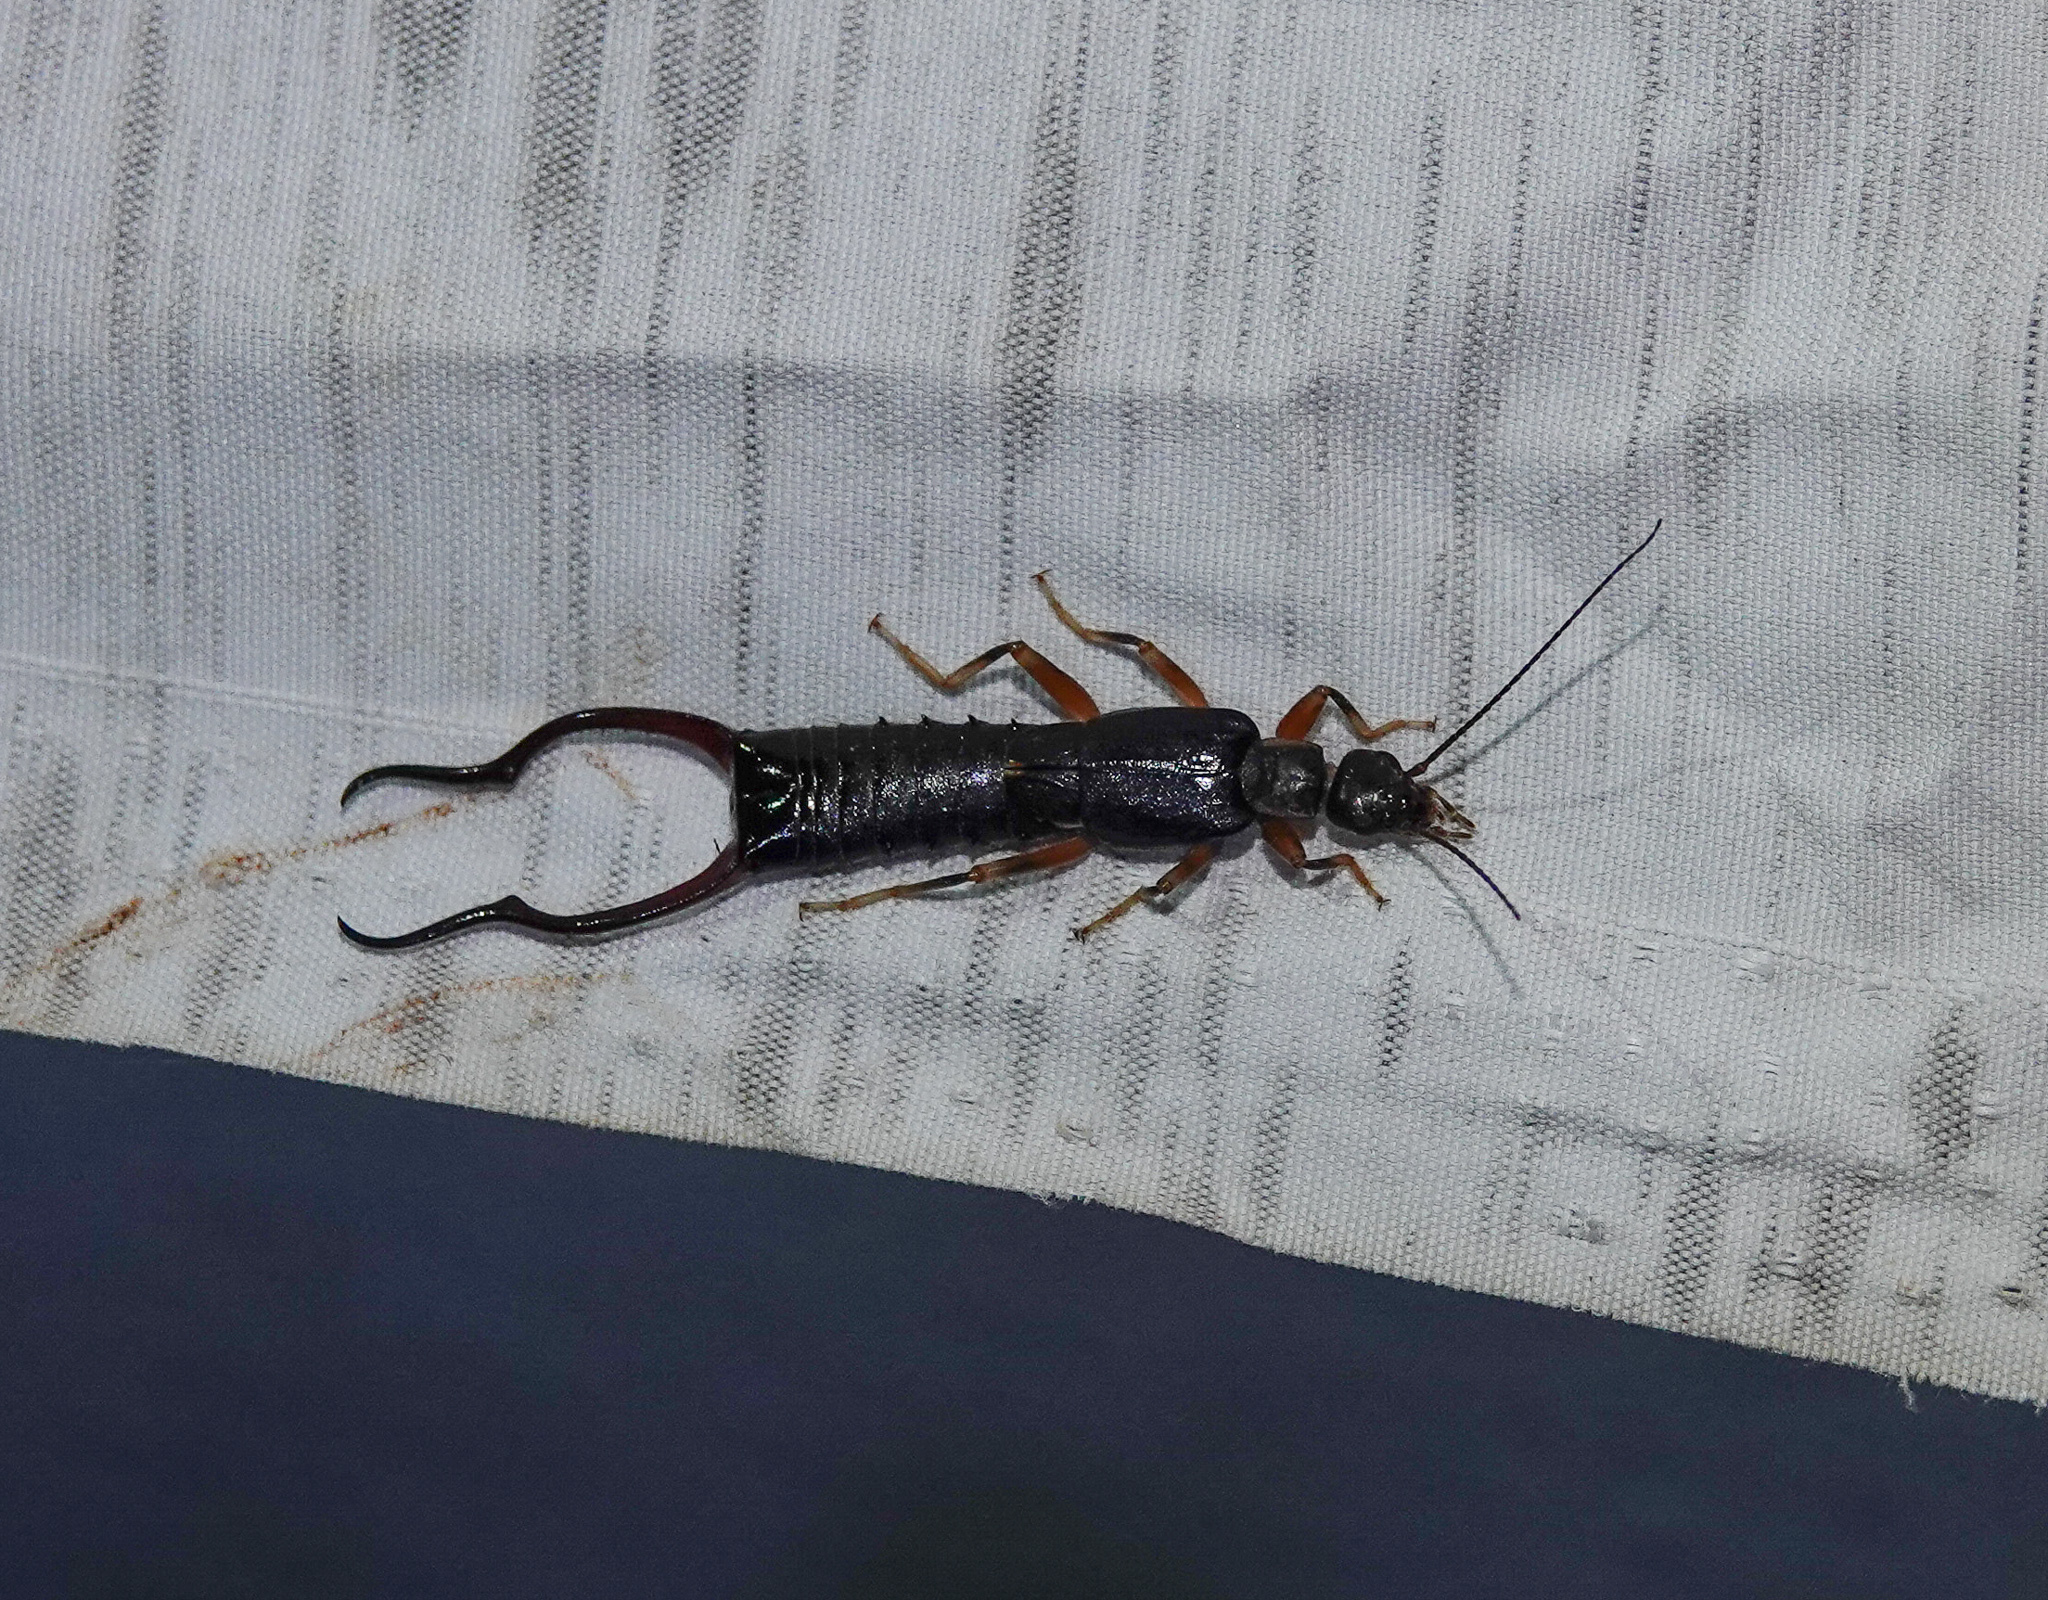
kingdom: Animalia
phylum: Arthropoda
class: Insecta
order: Dermaptera
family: Labiduridae
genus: Forcipula
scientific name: Forcipula quadrispinosa
